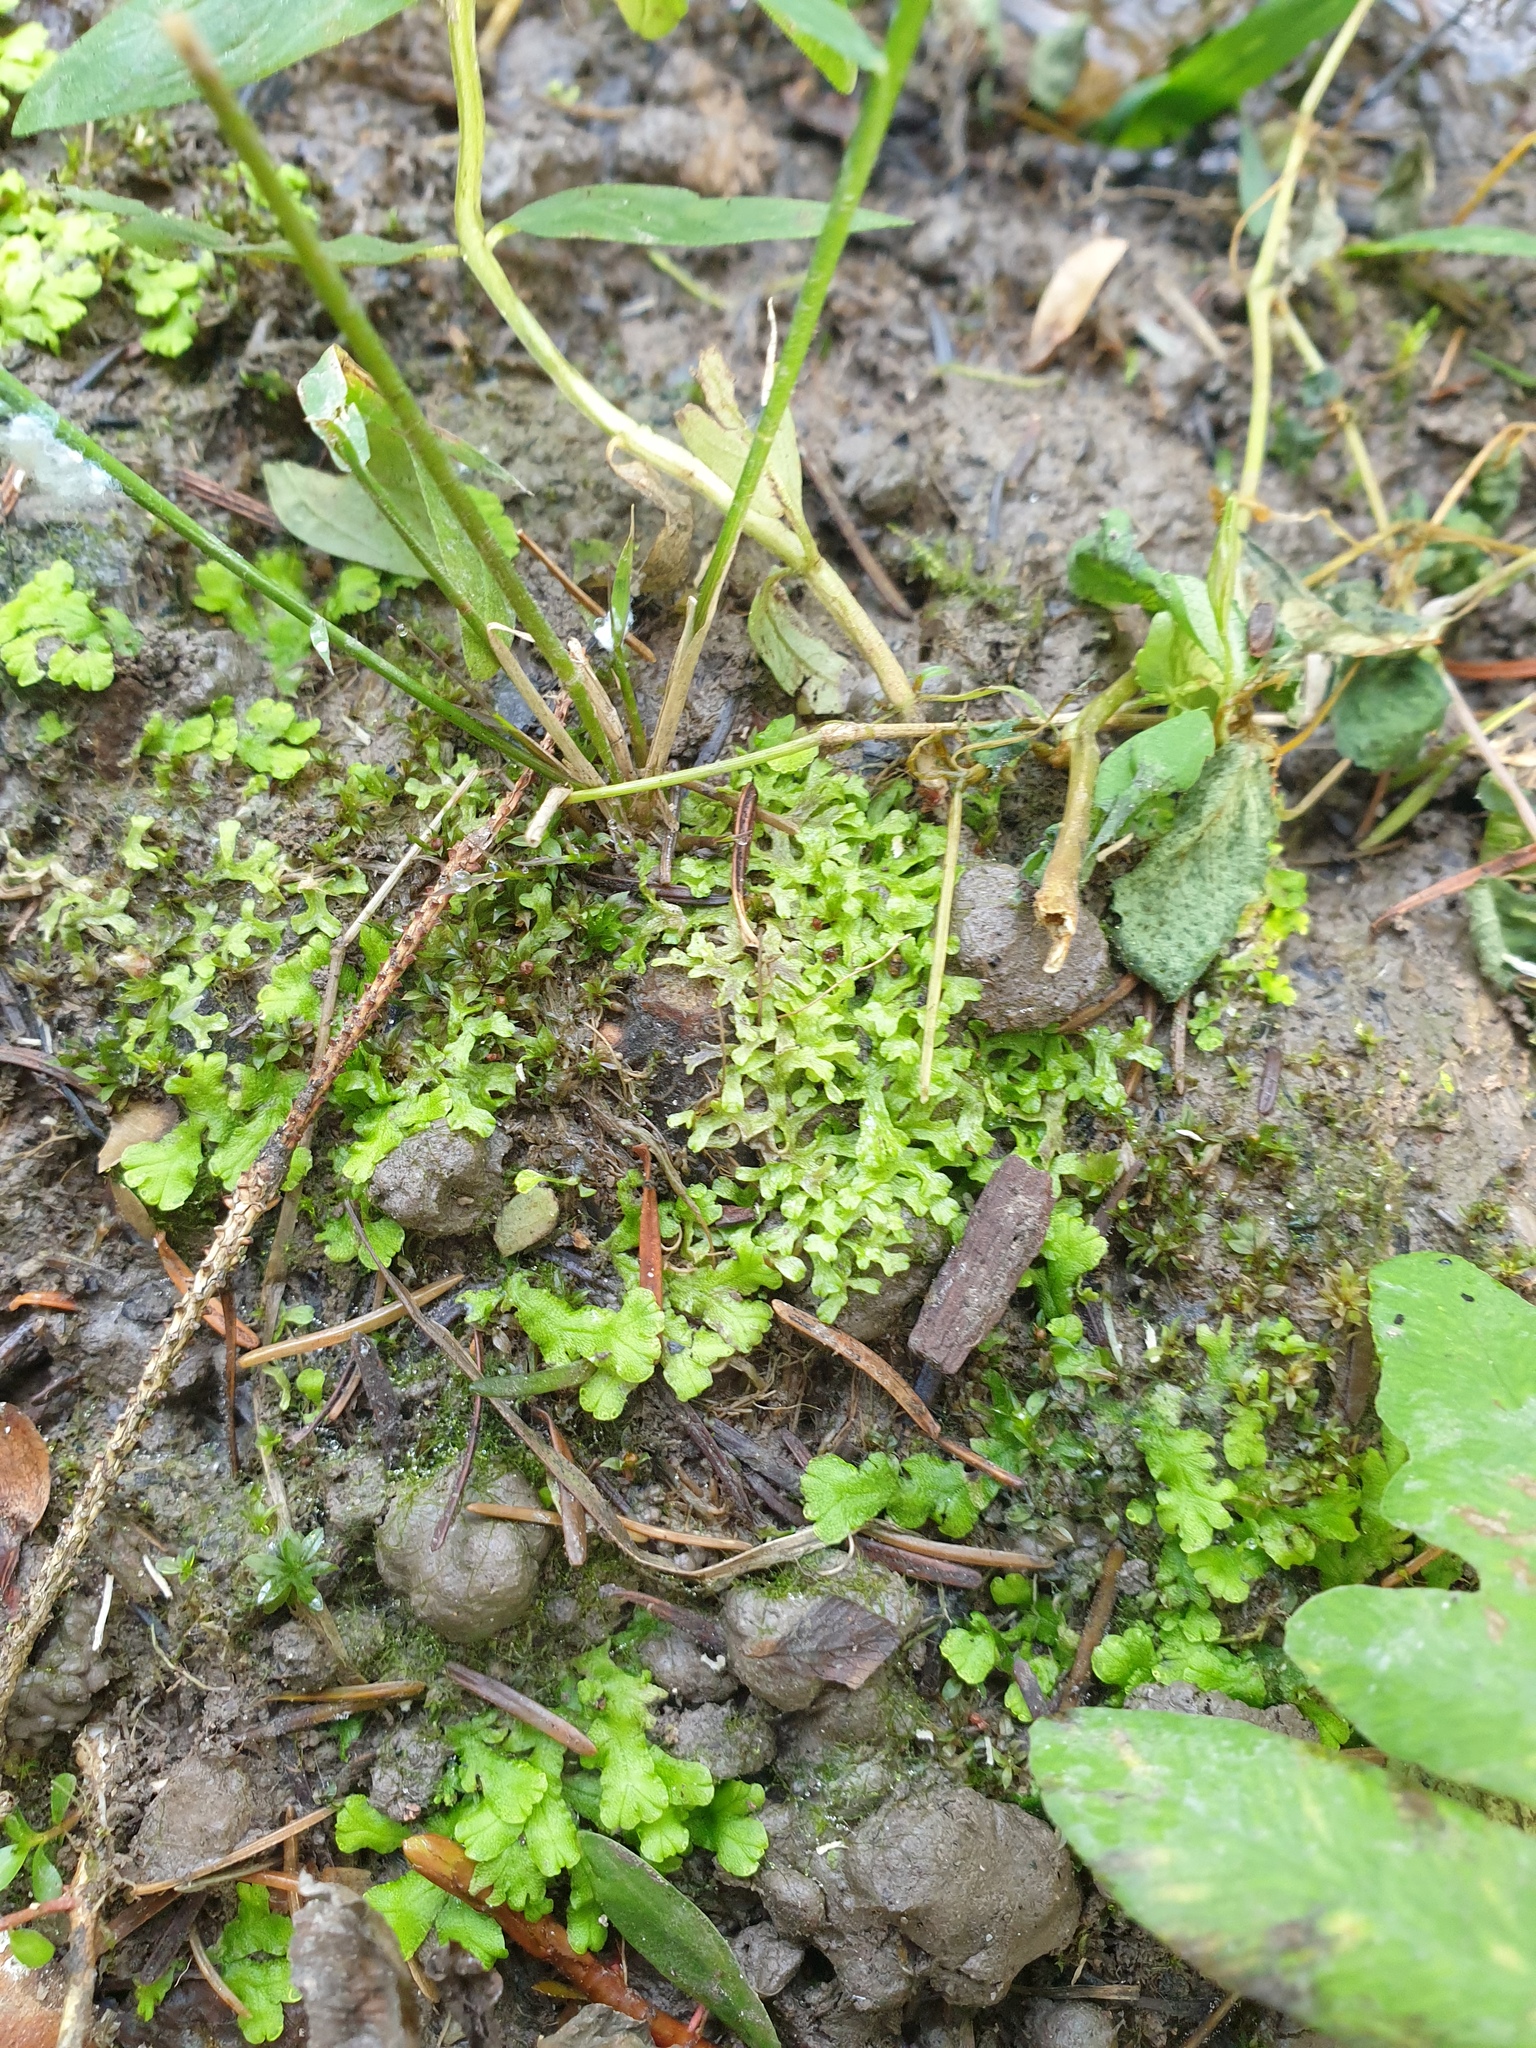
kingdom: Plantae
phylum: Marchantiophyta
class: Marchantiopsida
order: Marchantiales
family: Ricciaceae
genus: Ricciocarpos
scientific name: Ricciocarpos natans
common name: Purple-fringed liverwort
